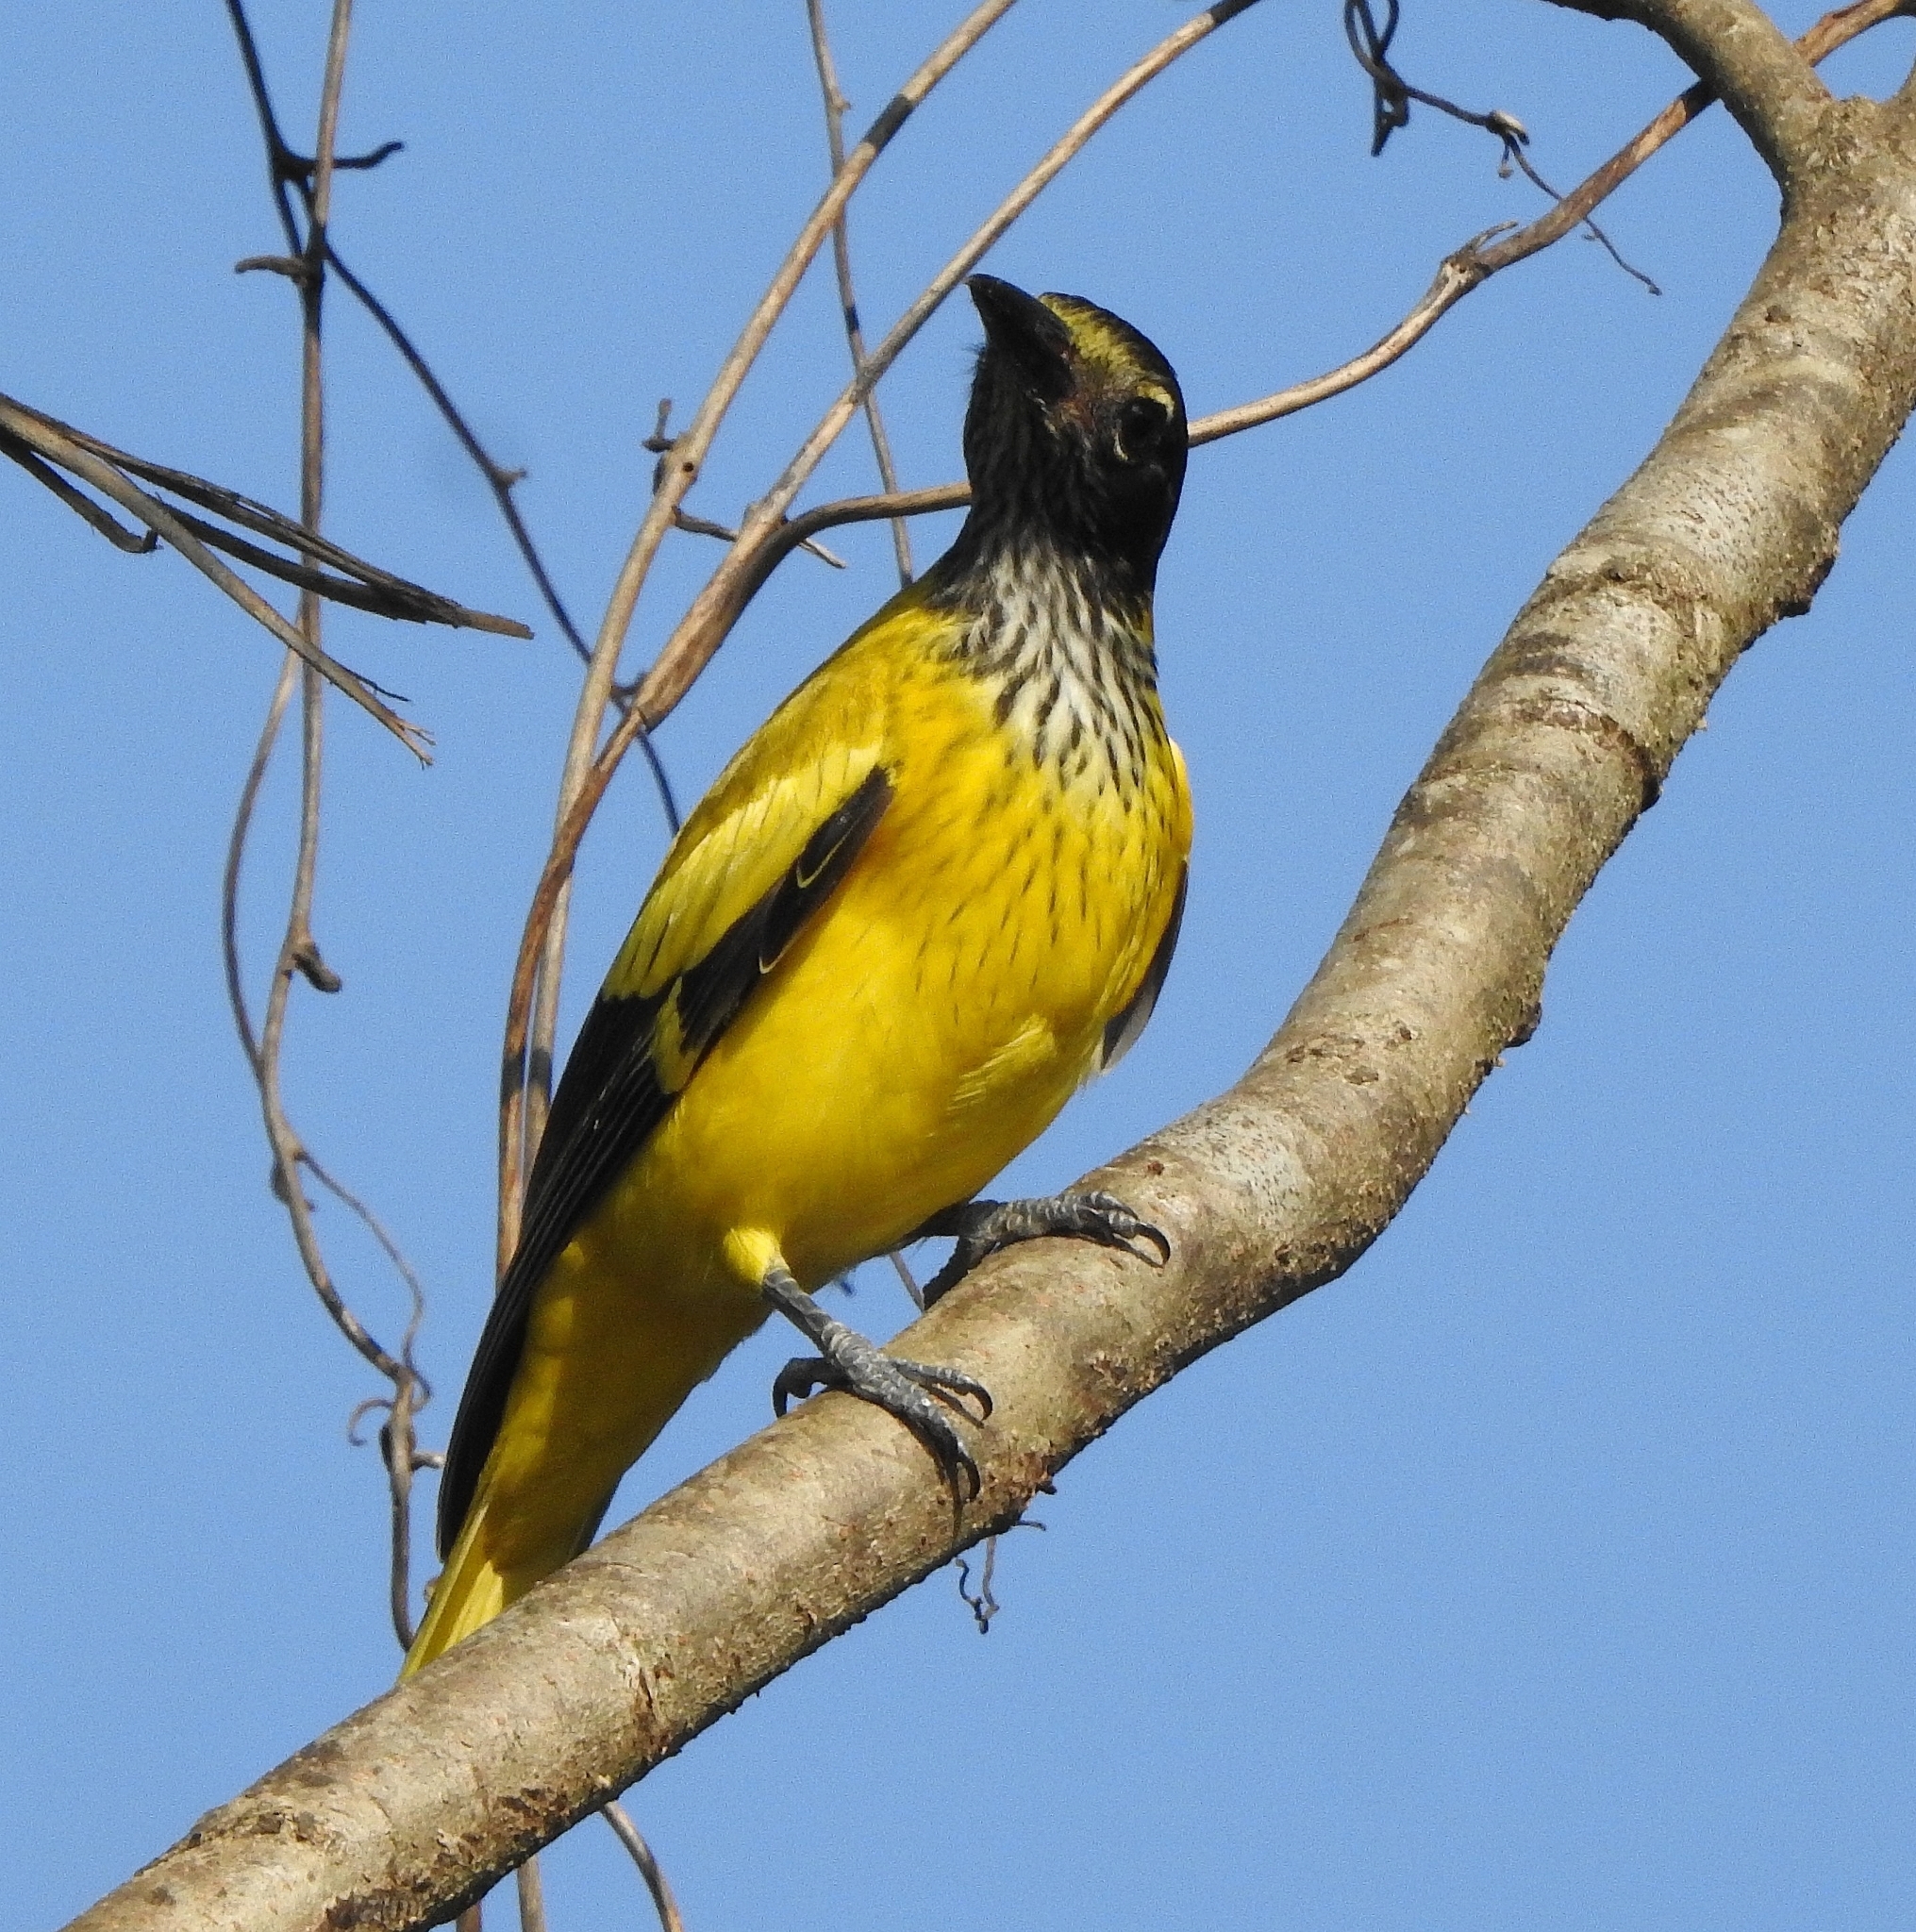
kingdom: Animalia
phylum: Chordata
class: Aves
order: Passeriformes
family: Oriolidae
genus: Oriolus
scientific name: Oriolus xanthornus
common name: Black-hooded oriole
